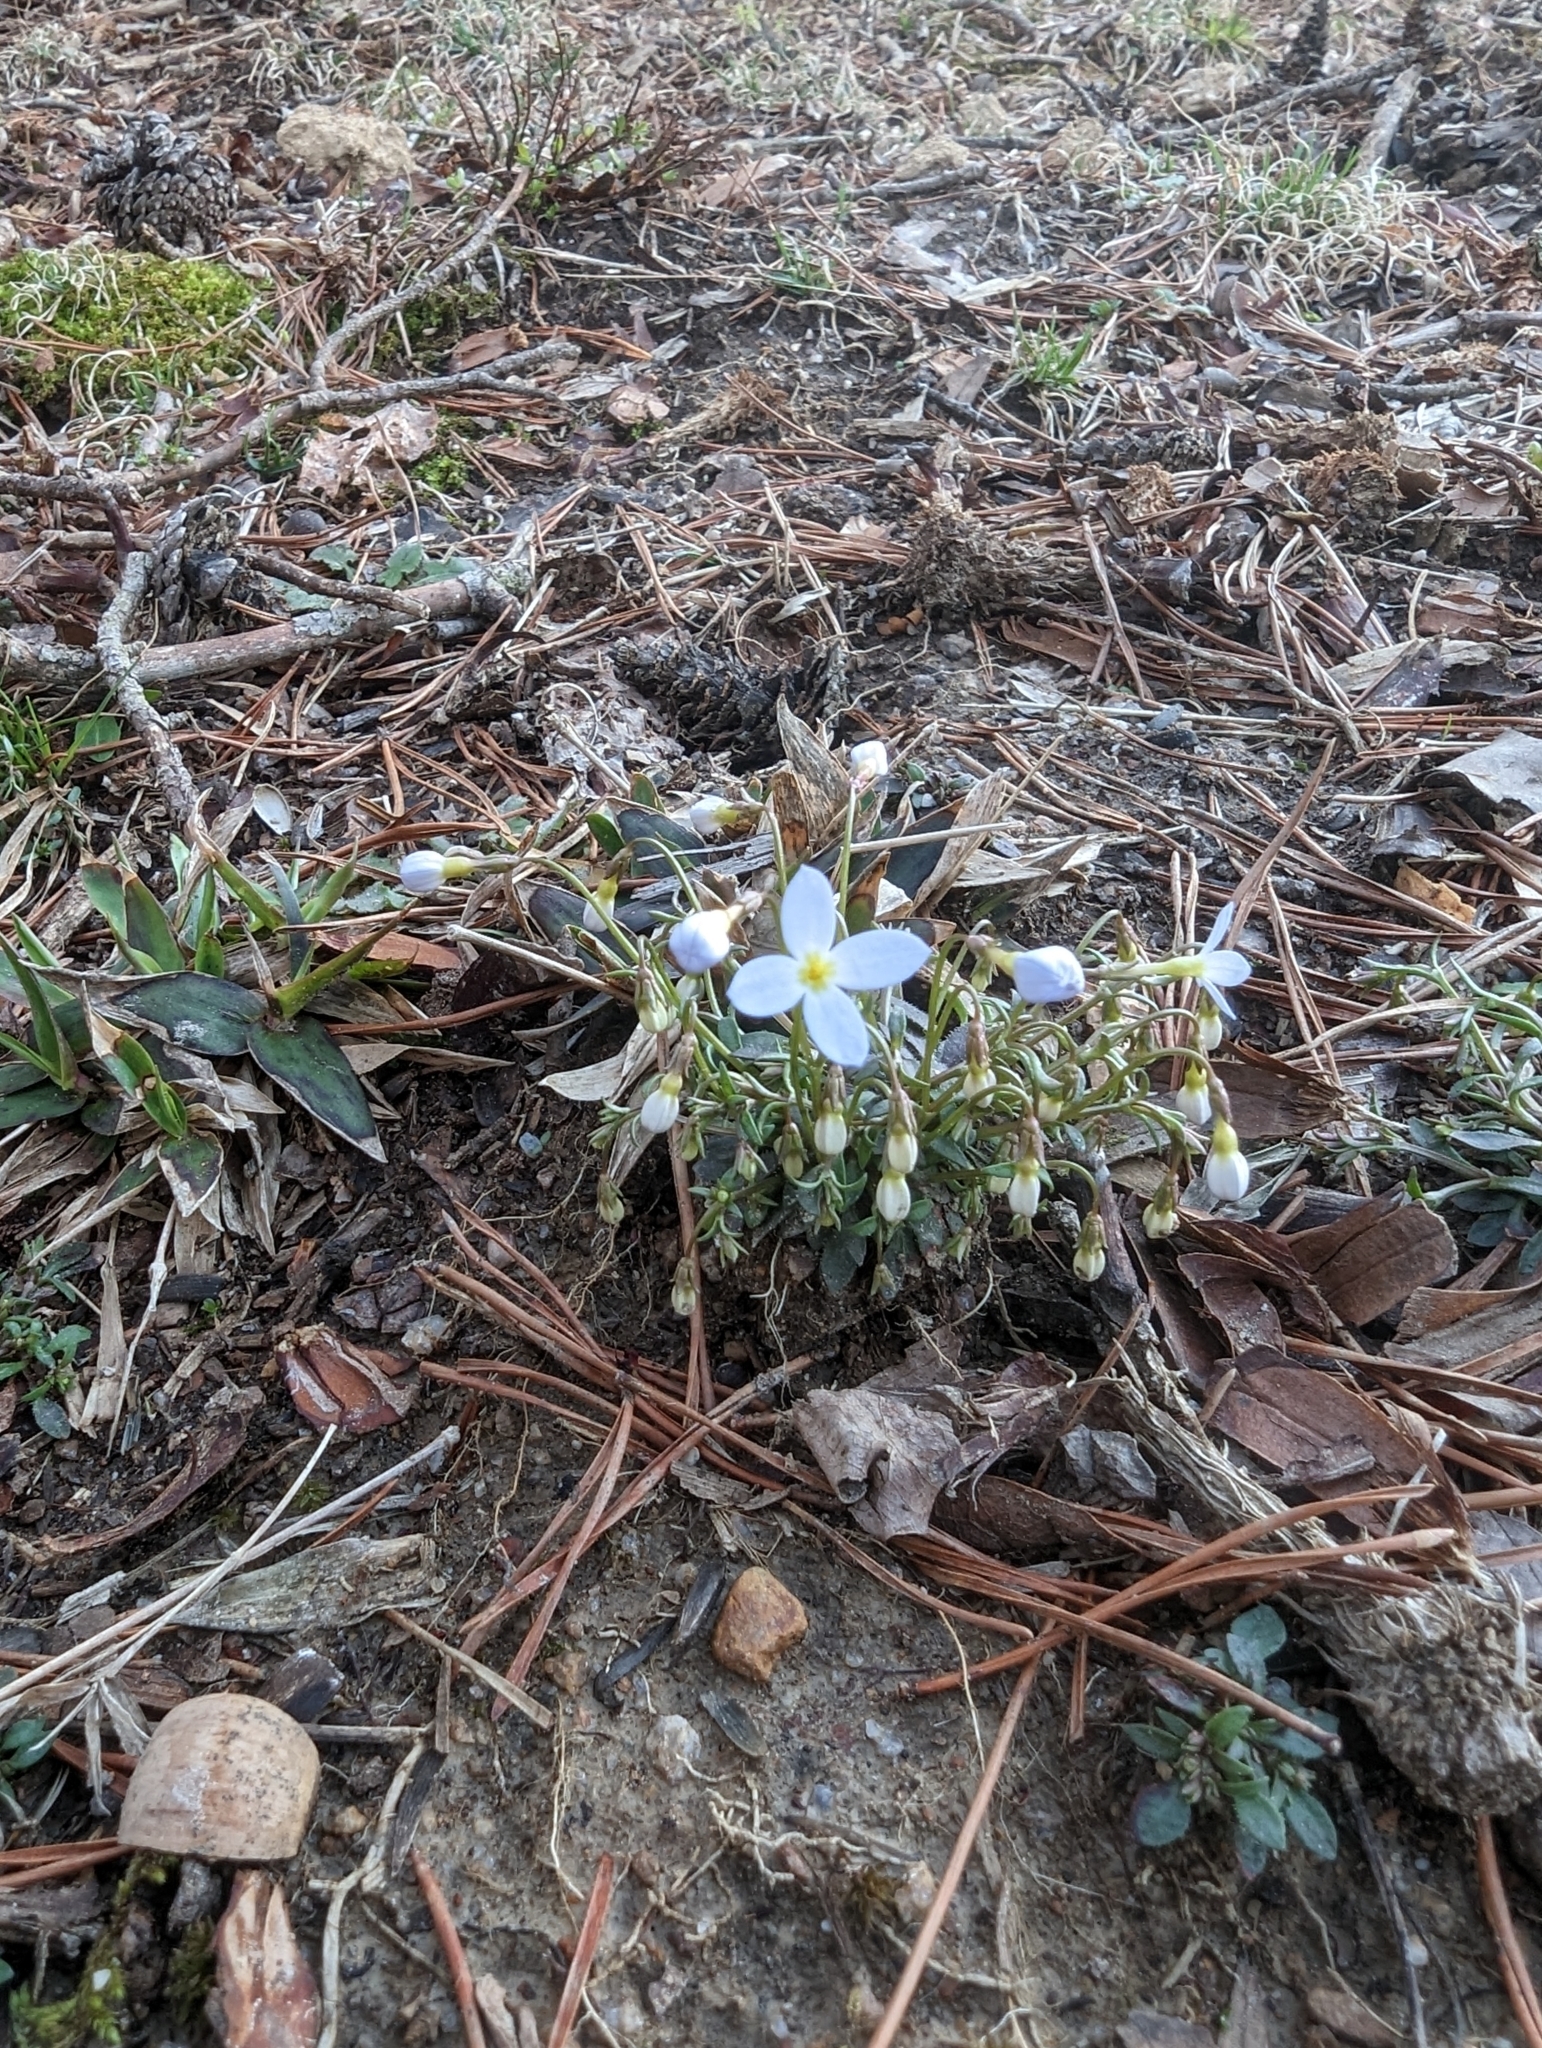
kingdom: Plantae
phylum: Tracheophyta
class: Magnoliopsida
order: Gentianales
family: Rubiaceae
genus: Houstonia
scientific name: Houstonia caerulea
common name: Bluets
